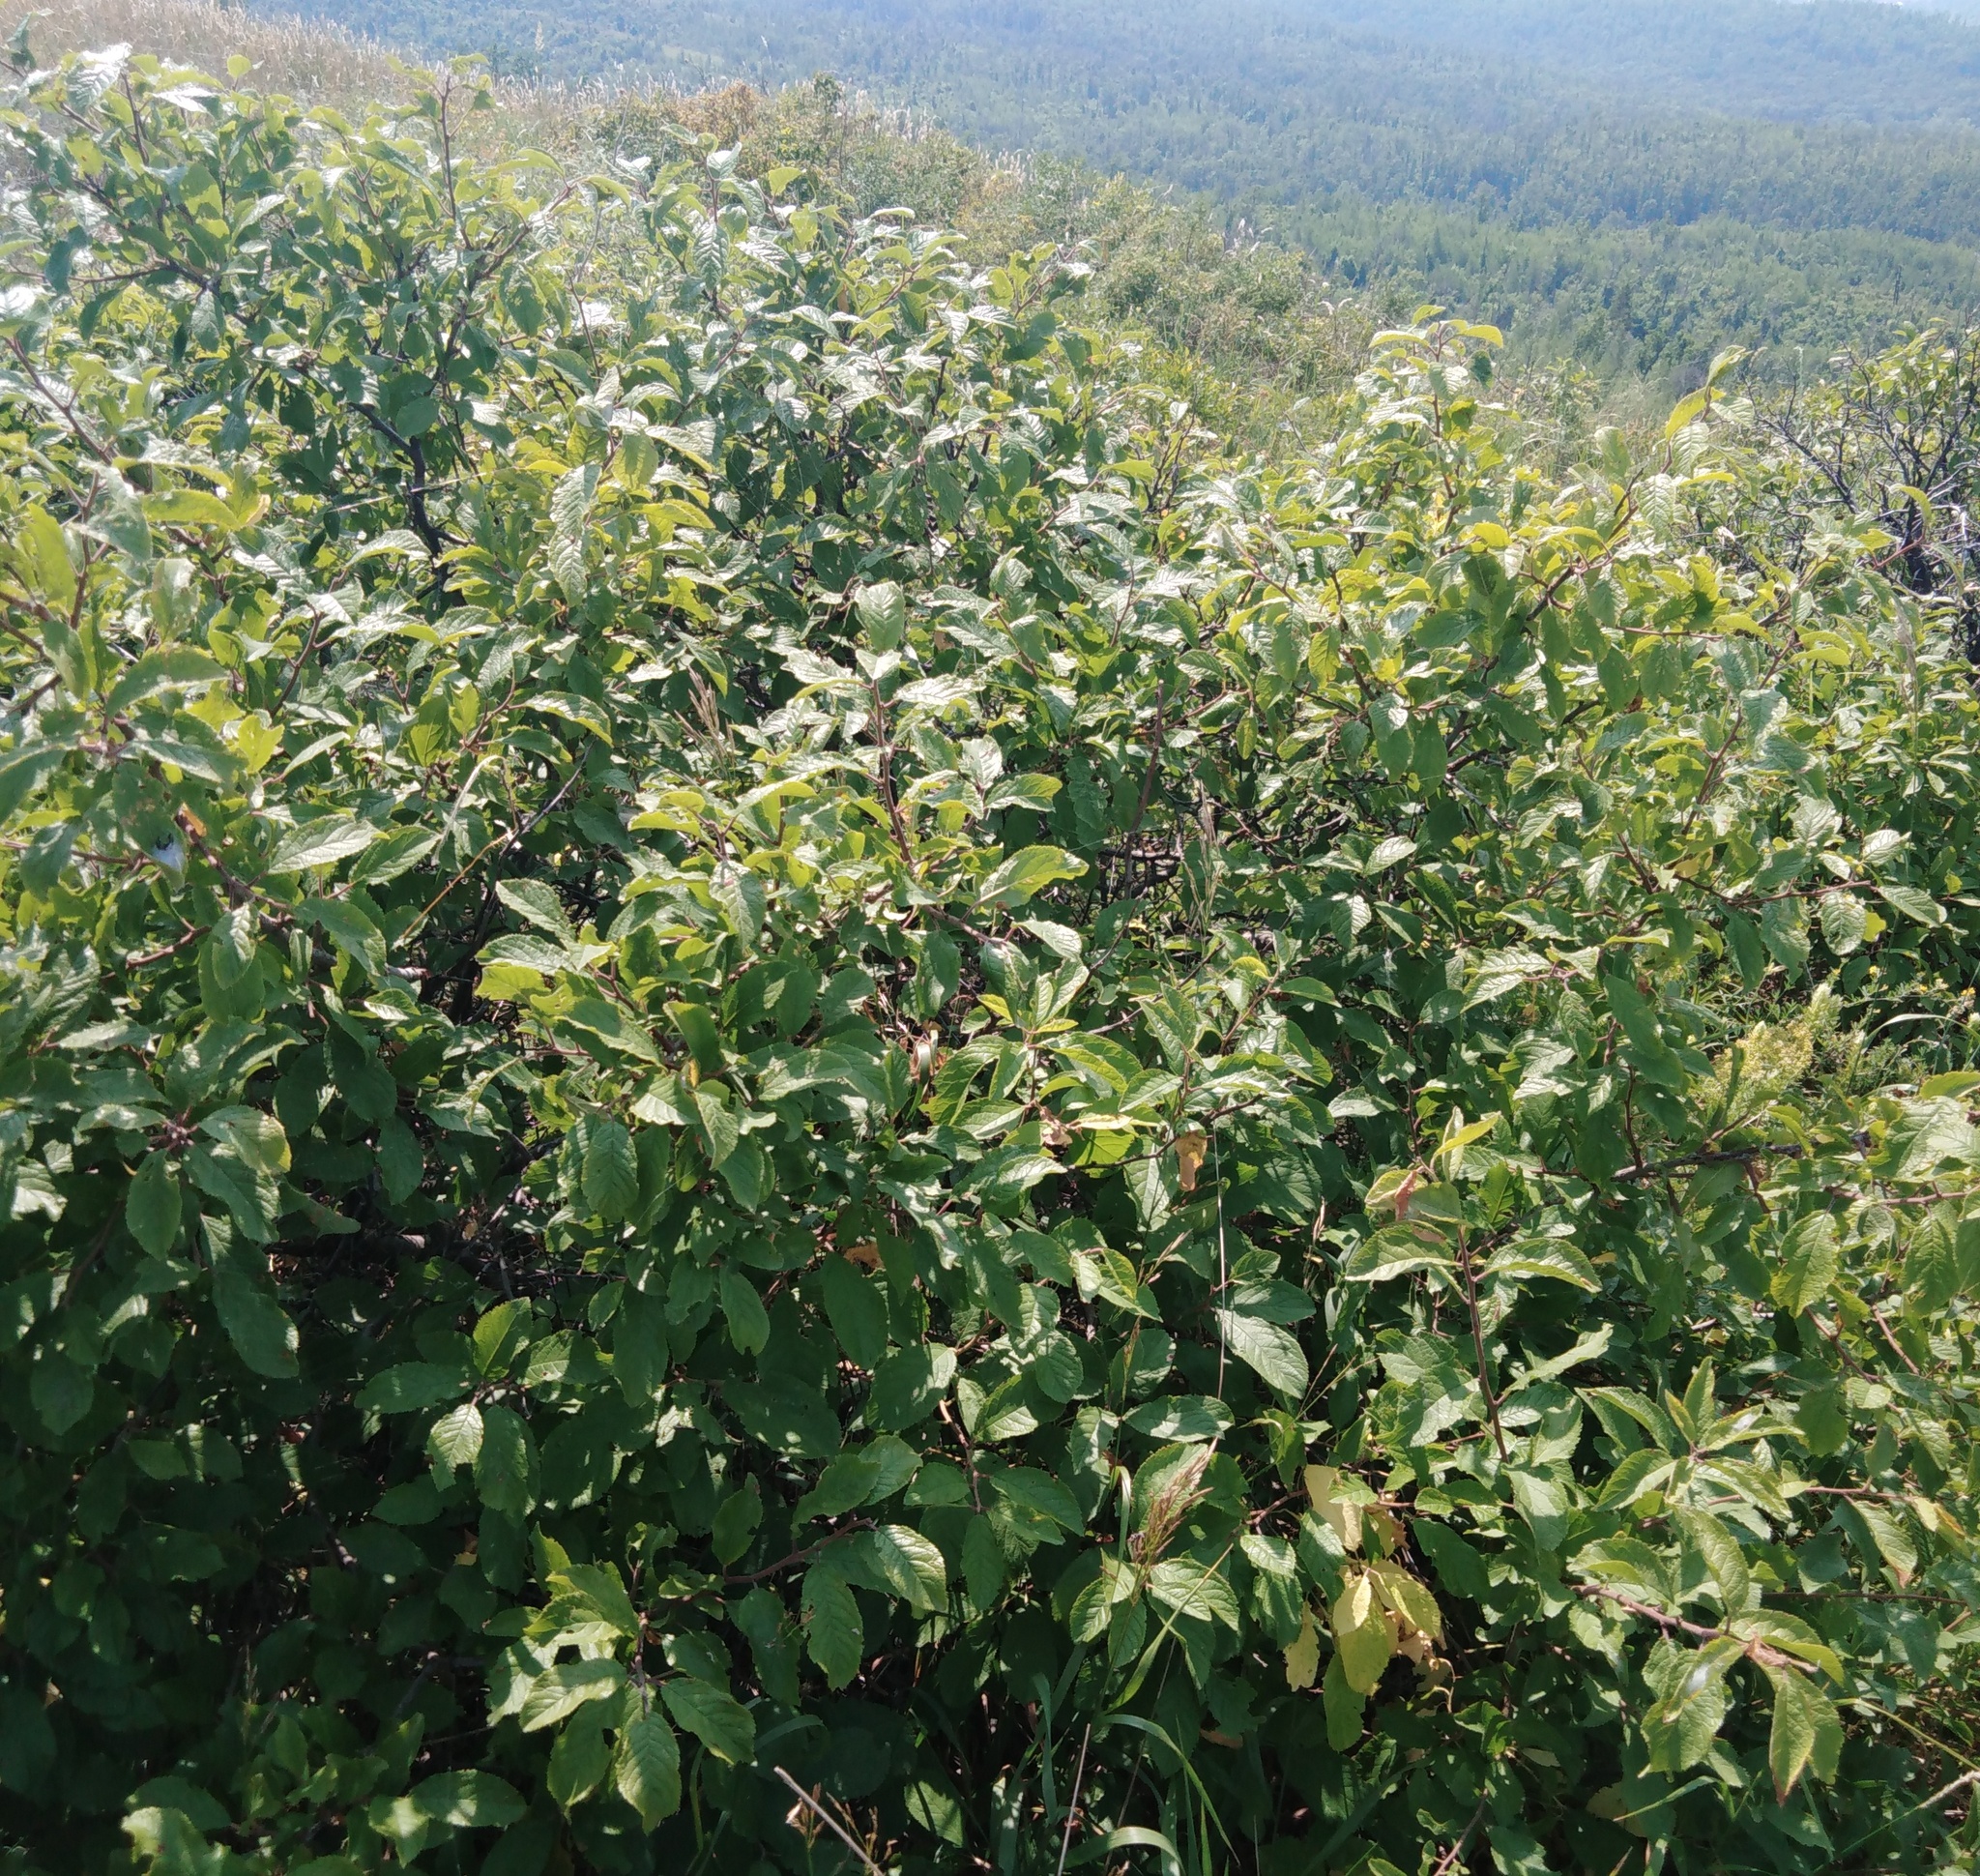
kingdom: Plantae
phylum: Tracheophyta
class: Magnoliopsida
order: Rosales
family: Rosaceae
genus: Prunus
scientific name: Prunus spinosa
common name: Blackthorn
